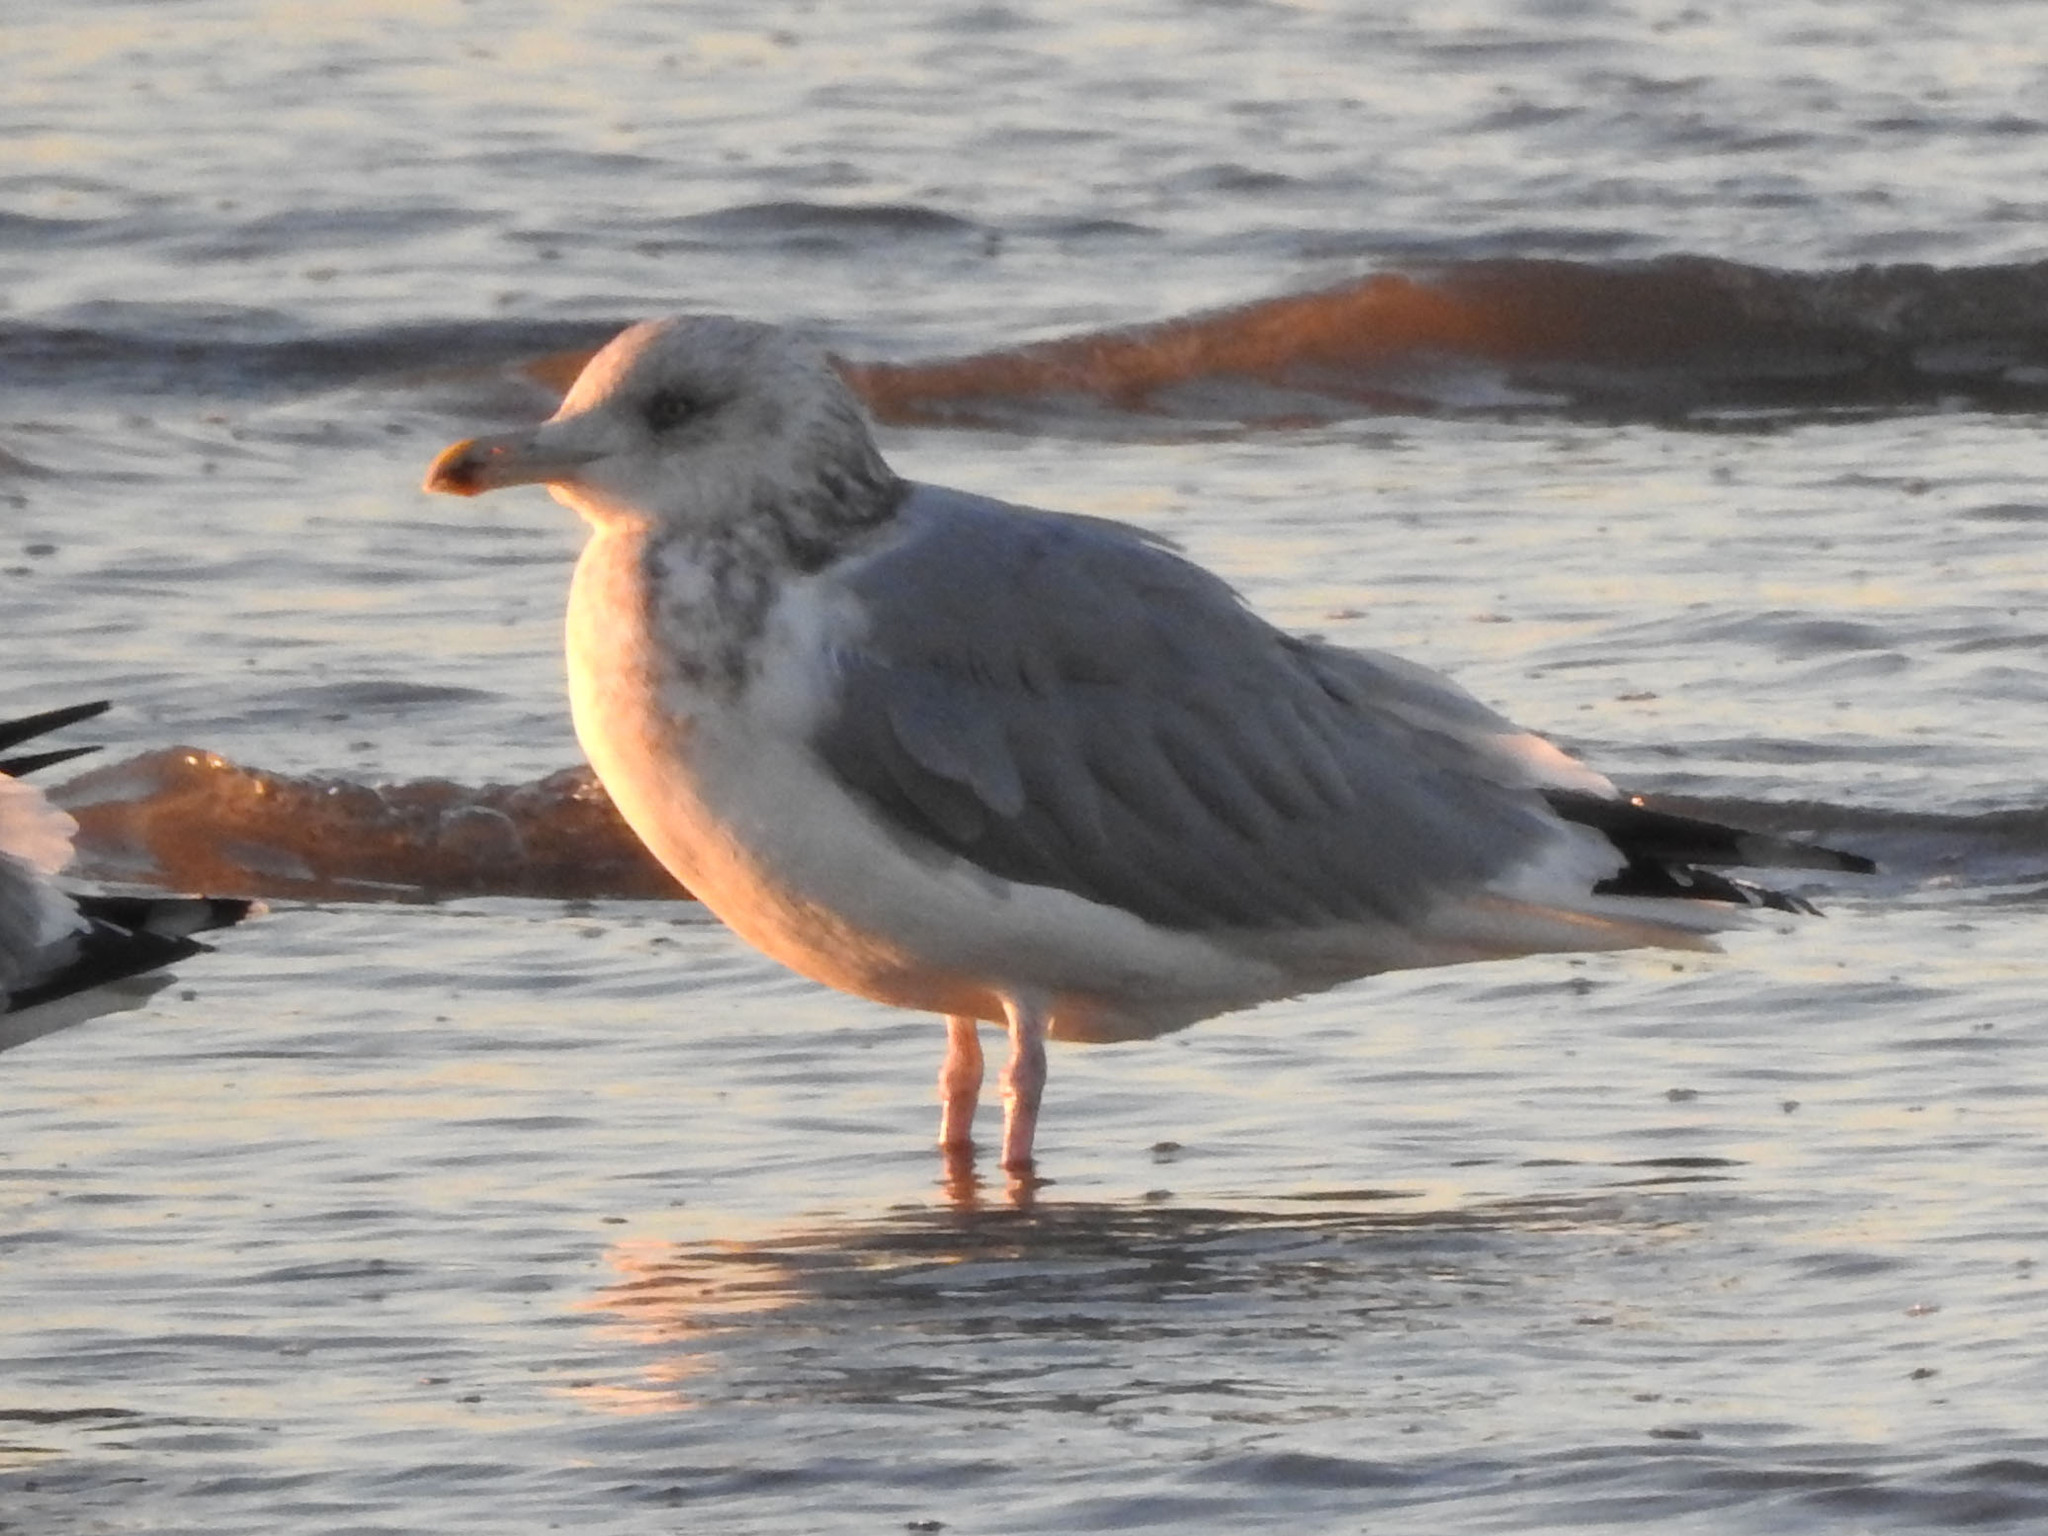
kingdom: Animalia
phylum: Chordata
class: Aves
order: Charadriiformes
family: Laridae
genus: Larus
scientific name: Larus argentatus
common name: Herring gull
